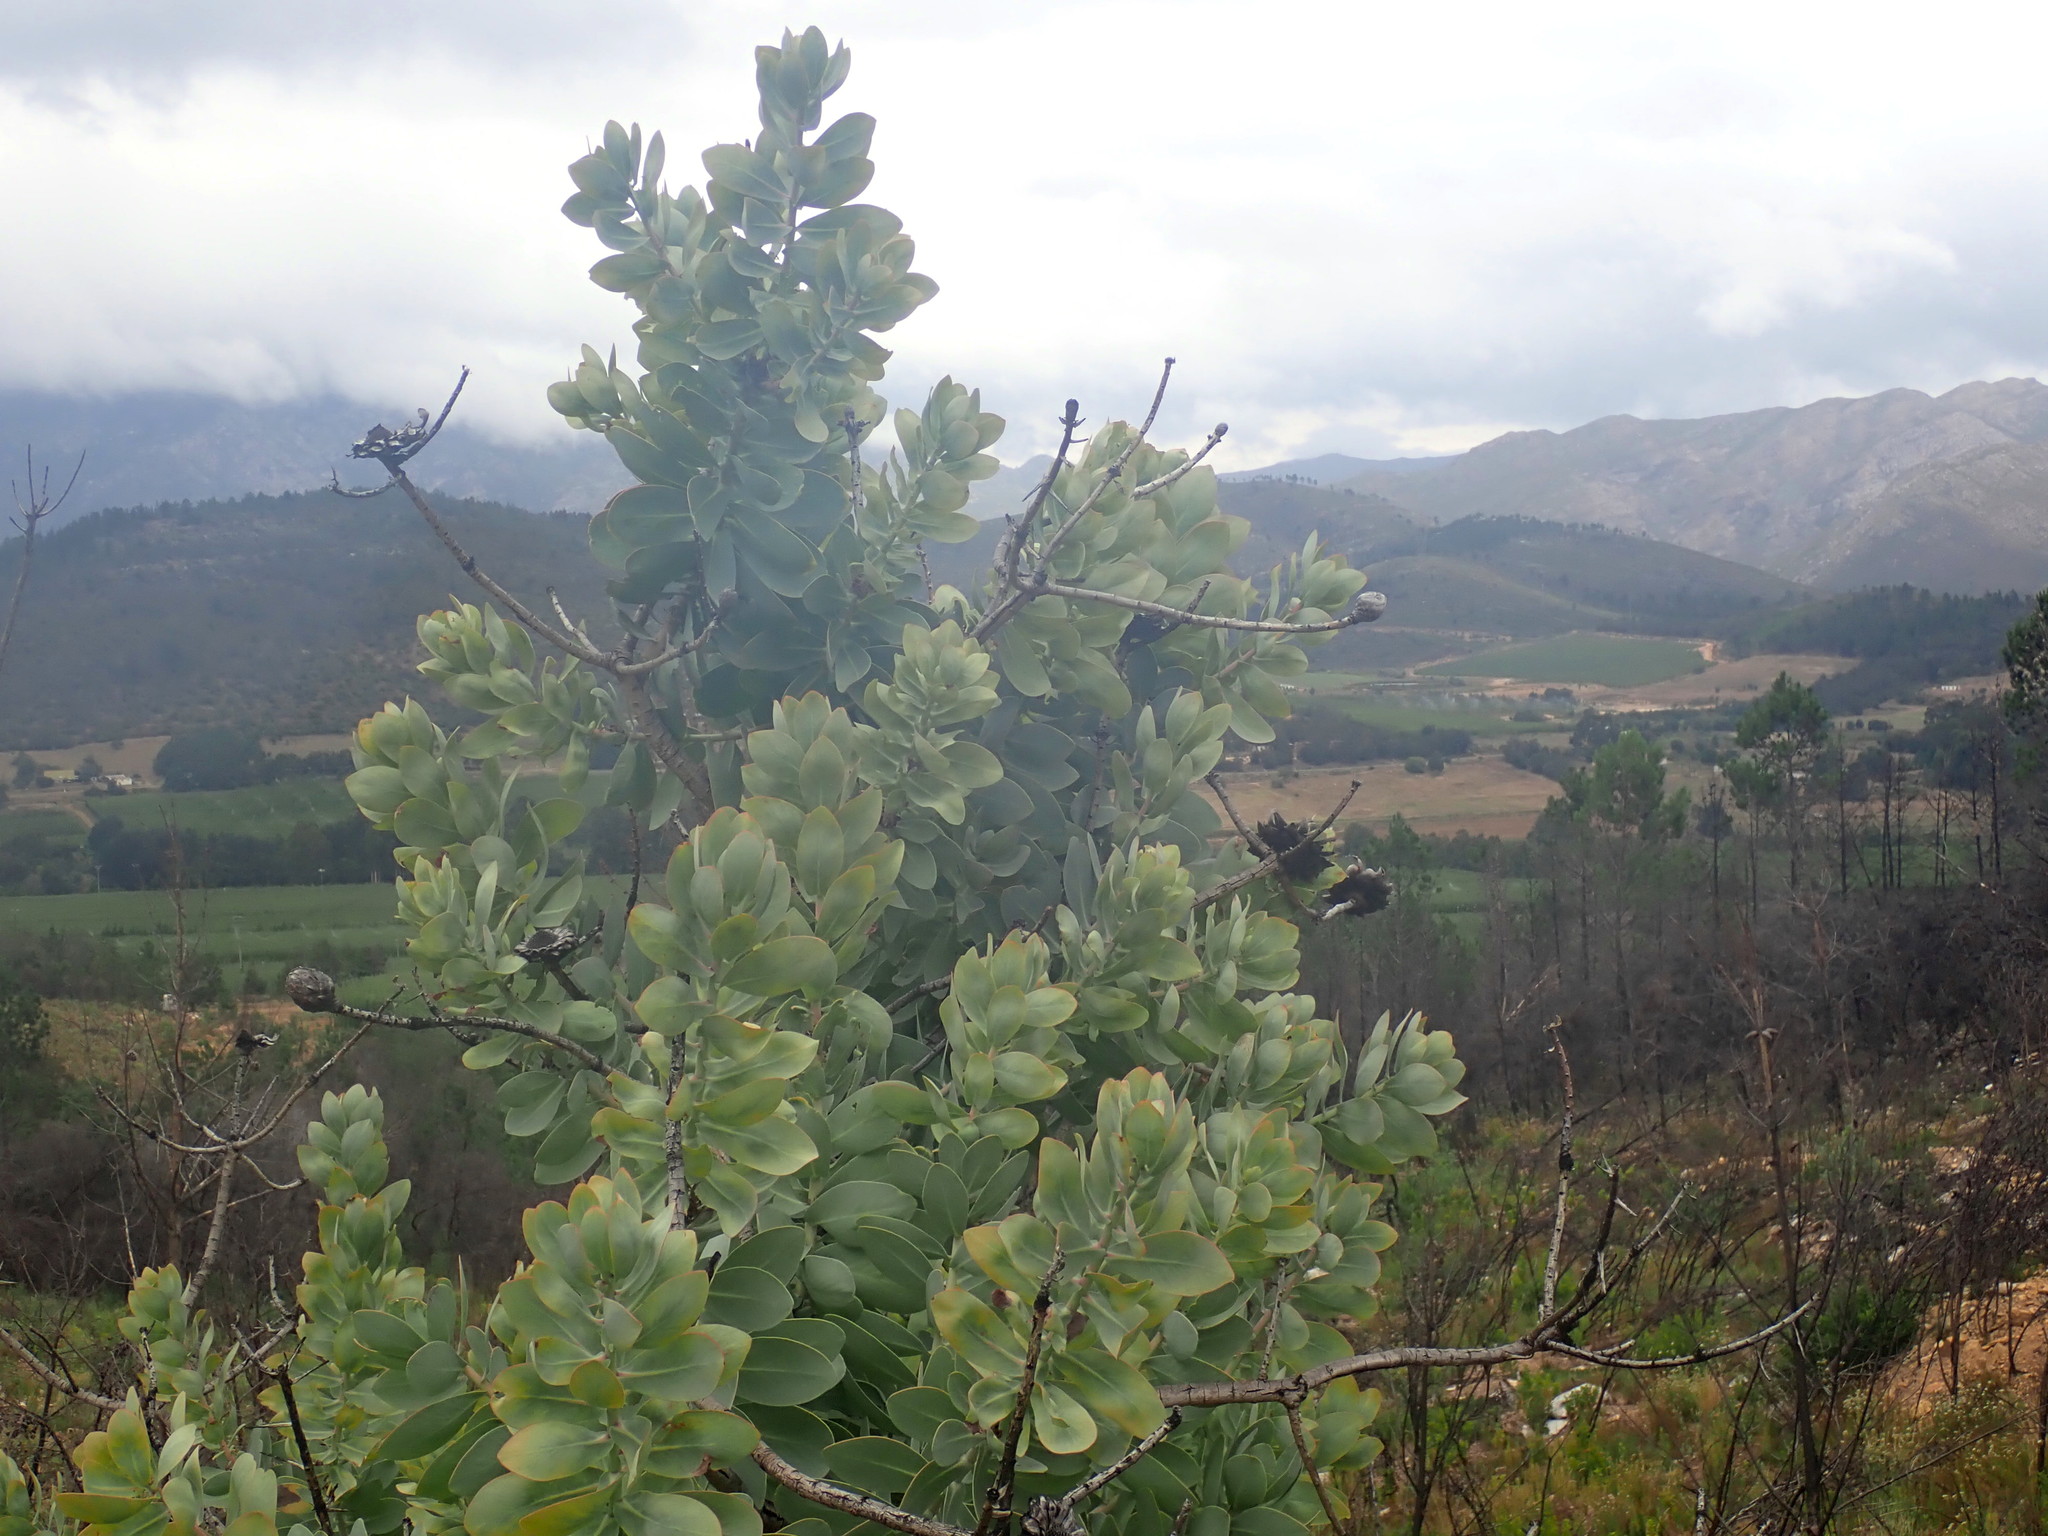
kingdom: Plantae
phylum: Tracheophyta
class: Magnoliopsida
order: Proteales
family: Proteaceae
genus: Protea
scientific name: Protea nitida
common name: Tree protea
